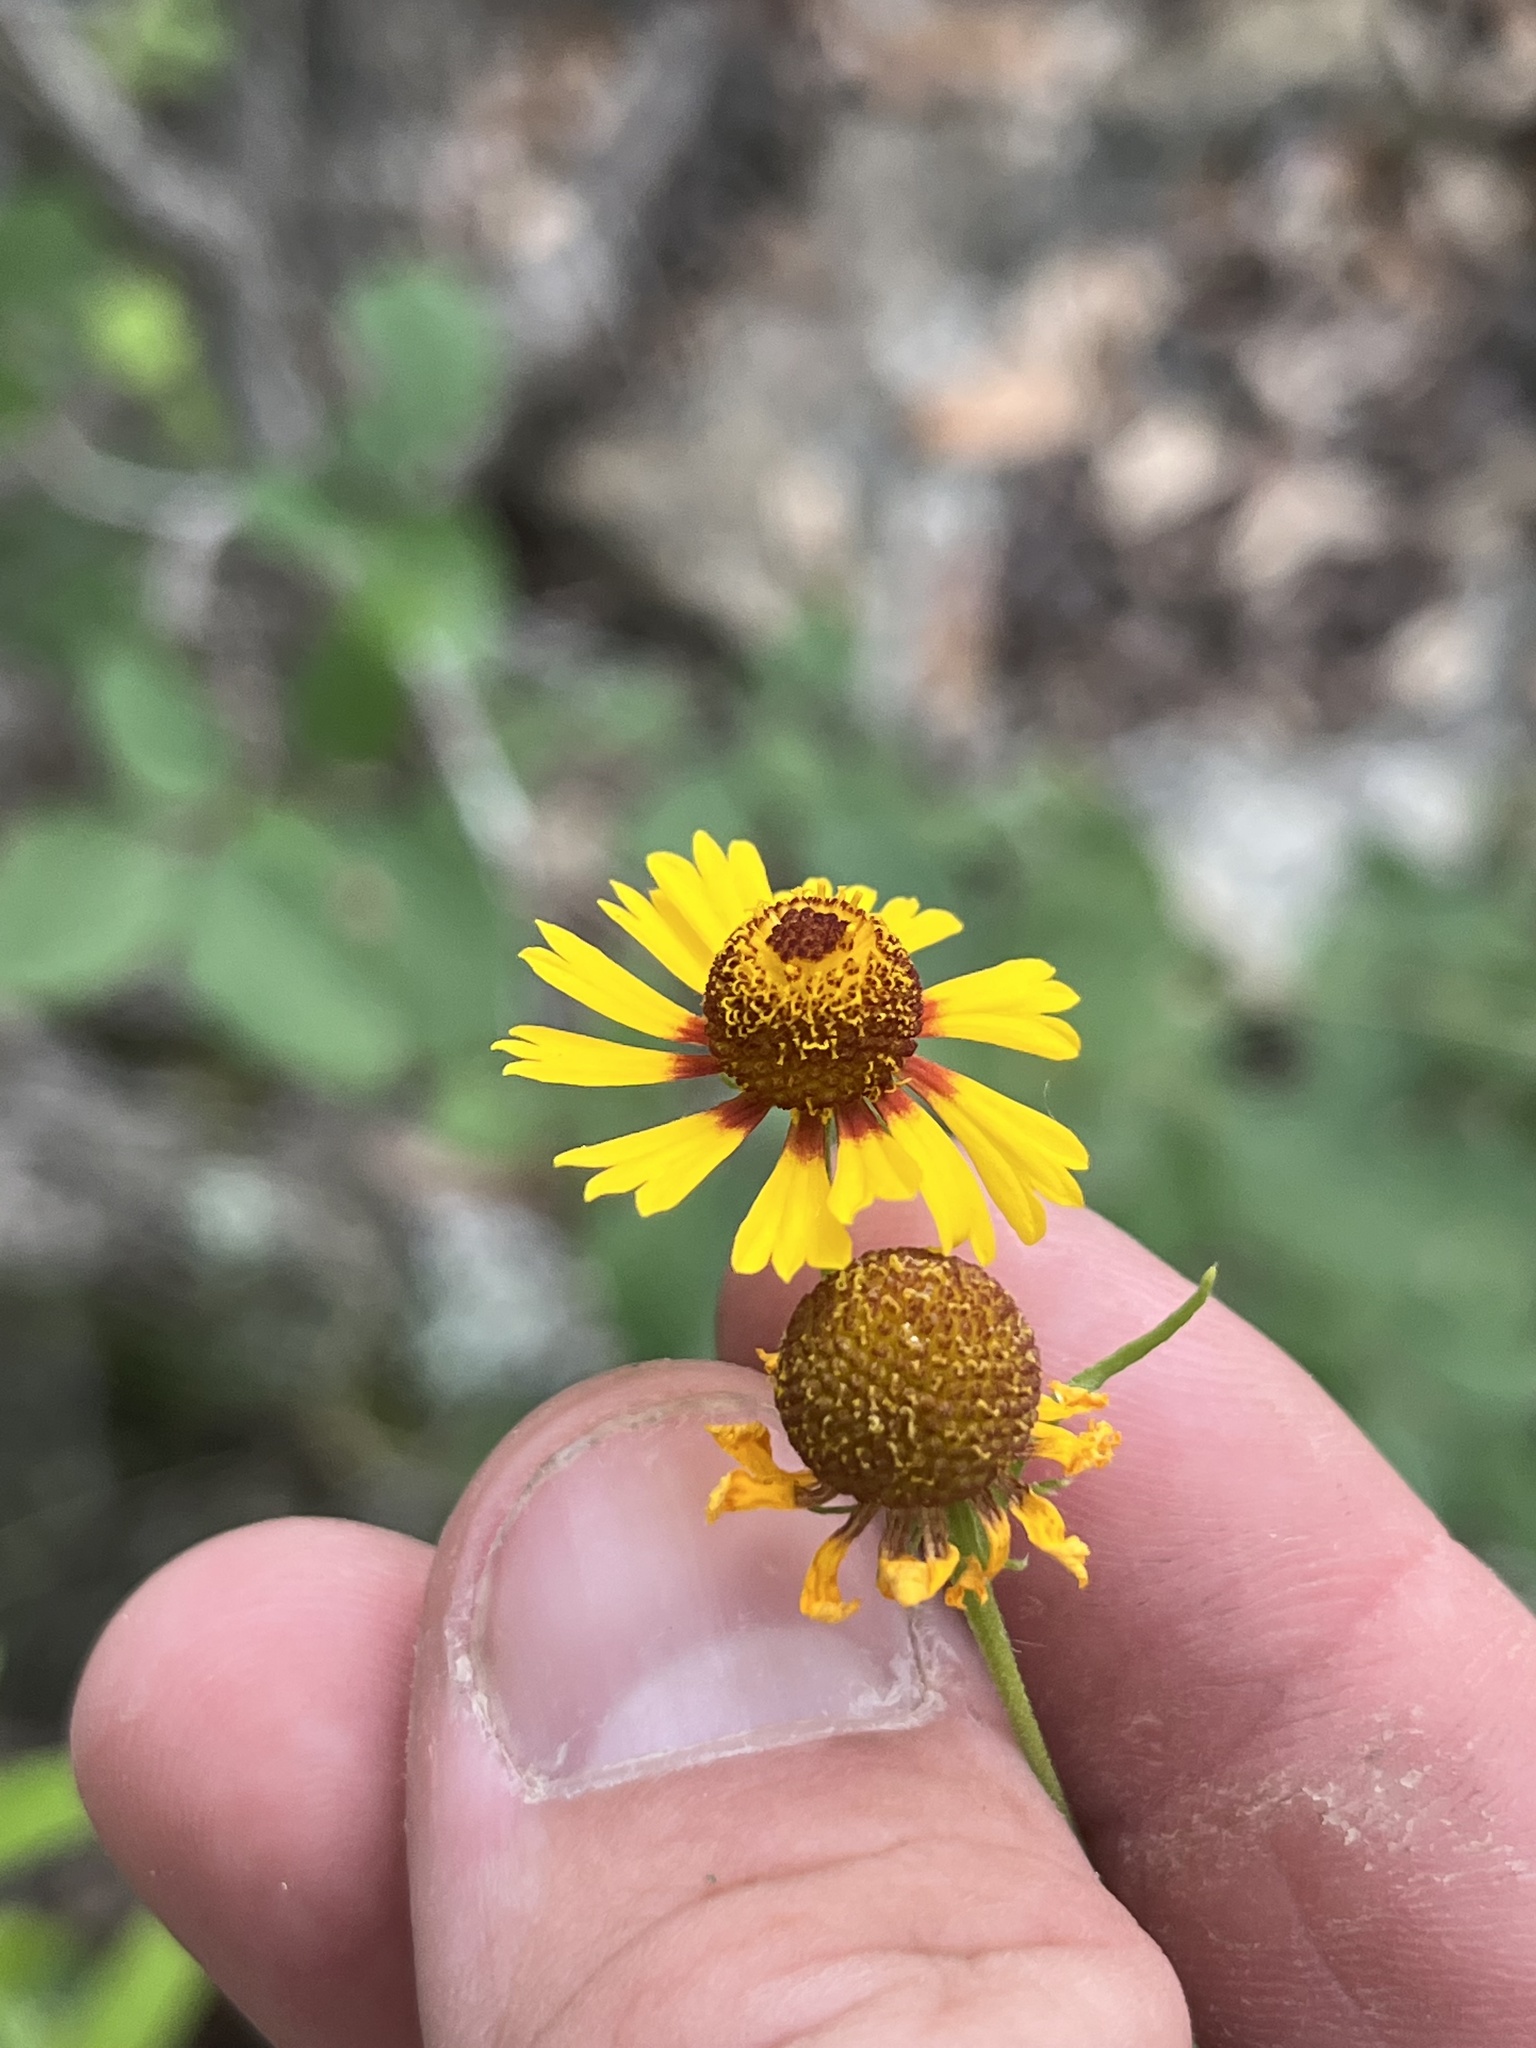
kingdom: Plantae
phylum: Tracheophyta
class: Magnoliopsida
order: Asterales
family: Asteraceae
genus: Helenium
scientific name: Helenium elegans
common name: Pretty sneezeweed
